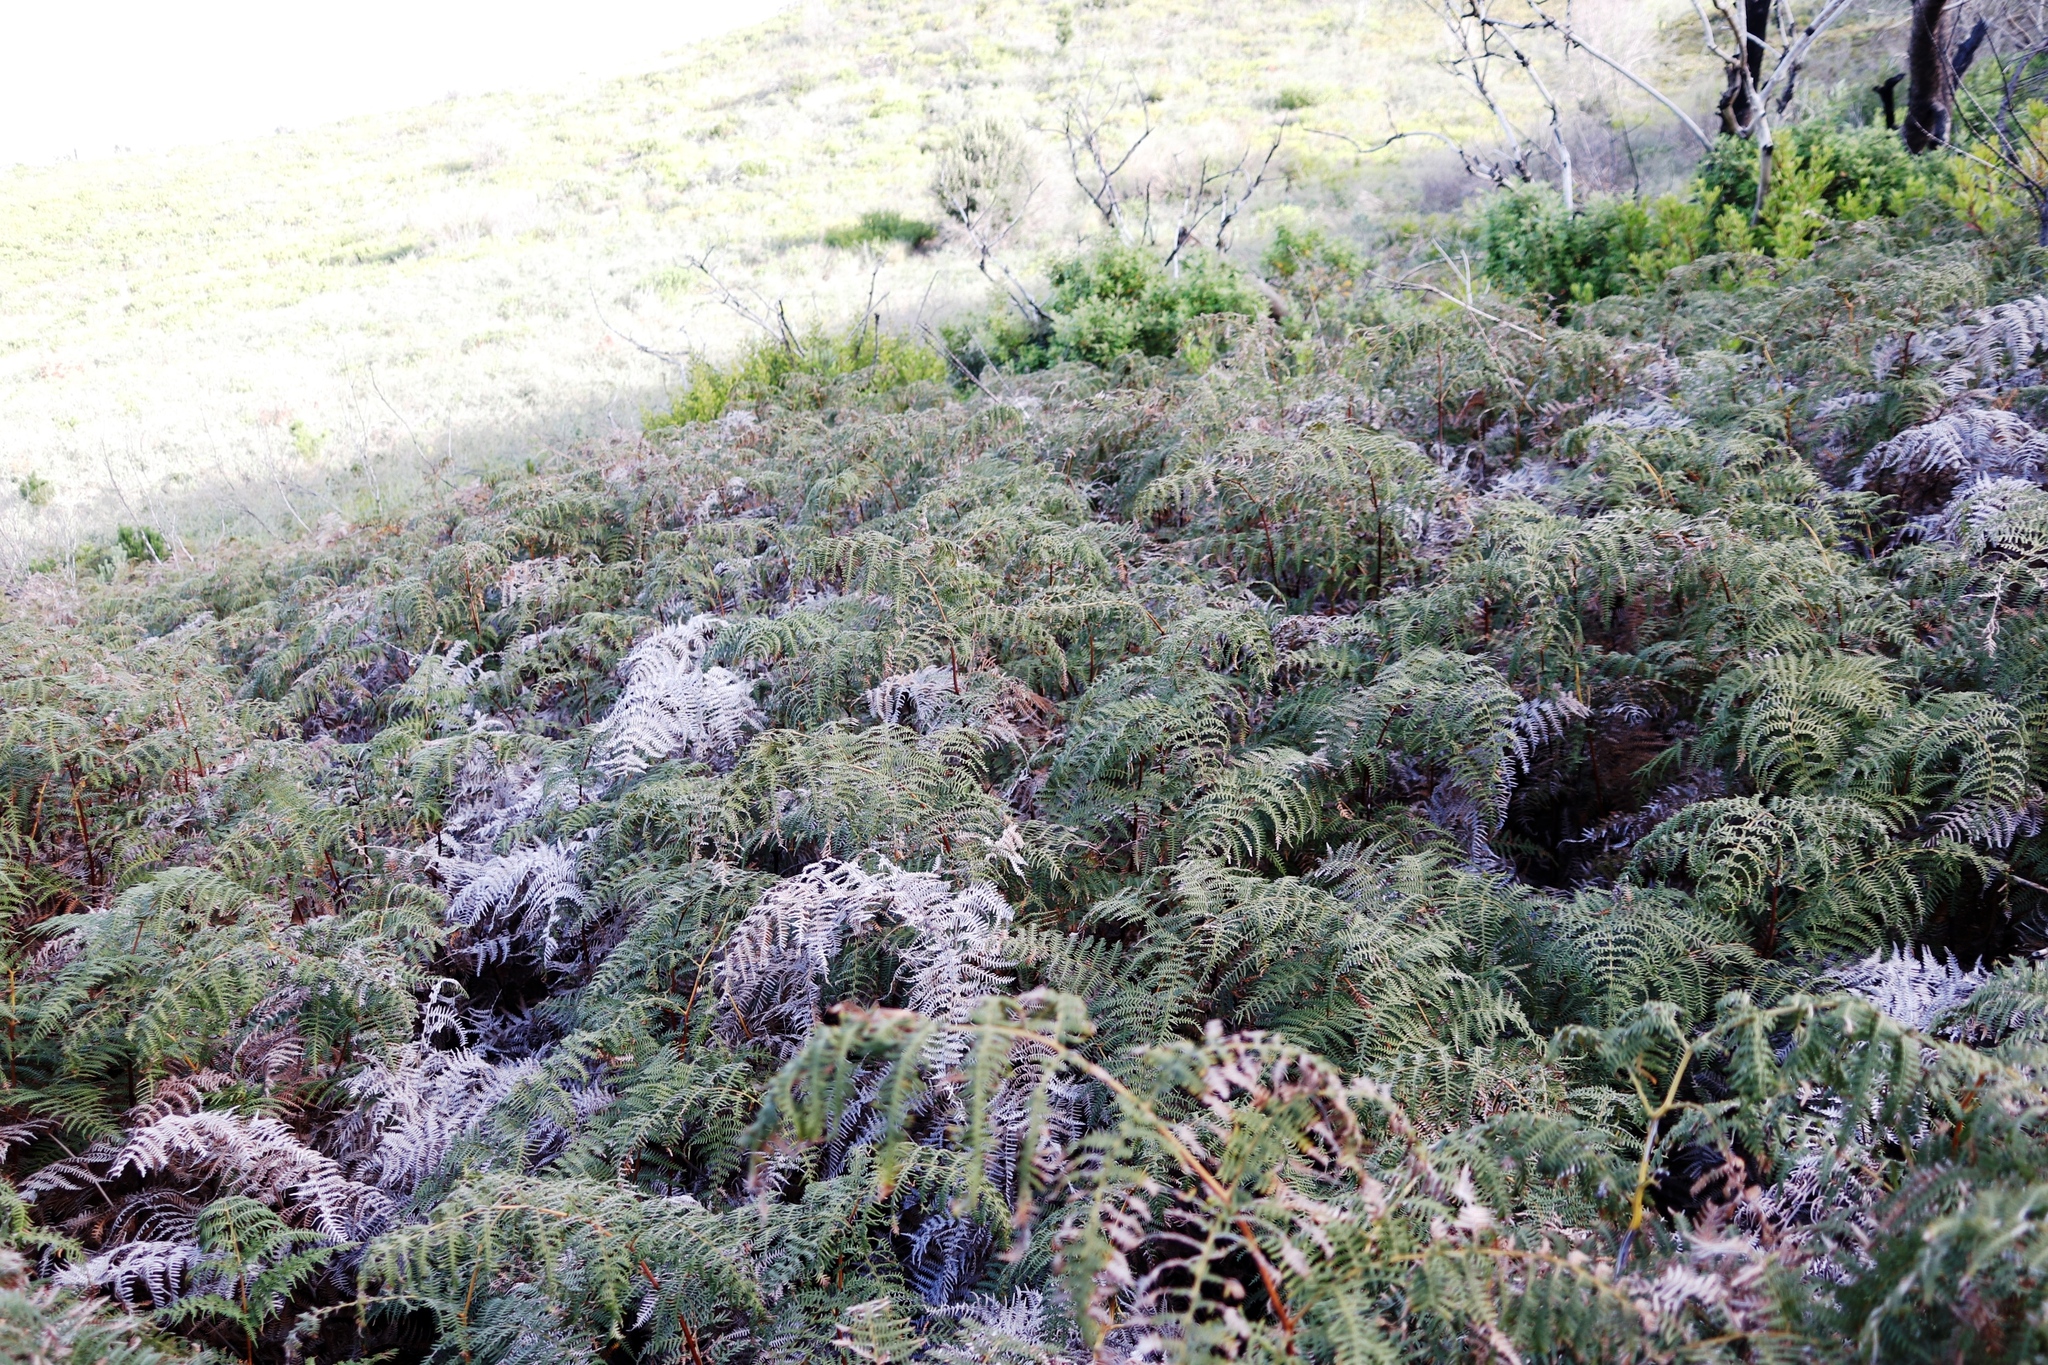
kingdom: Plantae
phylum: Tracheophyta
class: Polypodiopsida
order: Polypodiales
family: Dennstaedtiaceae
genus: Pteridium
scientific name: Pteridium aquilinum
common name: Bracken
